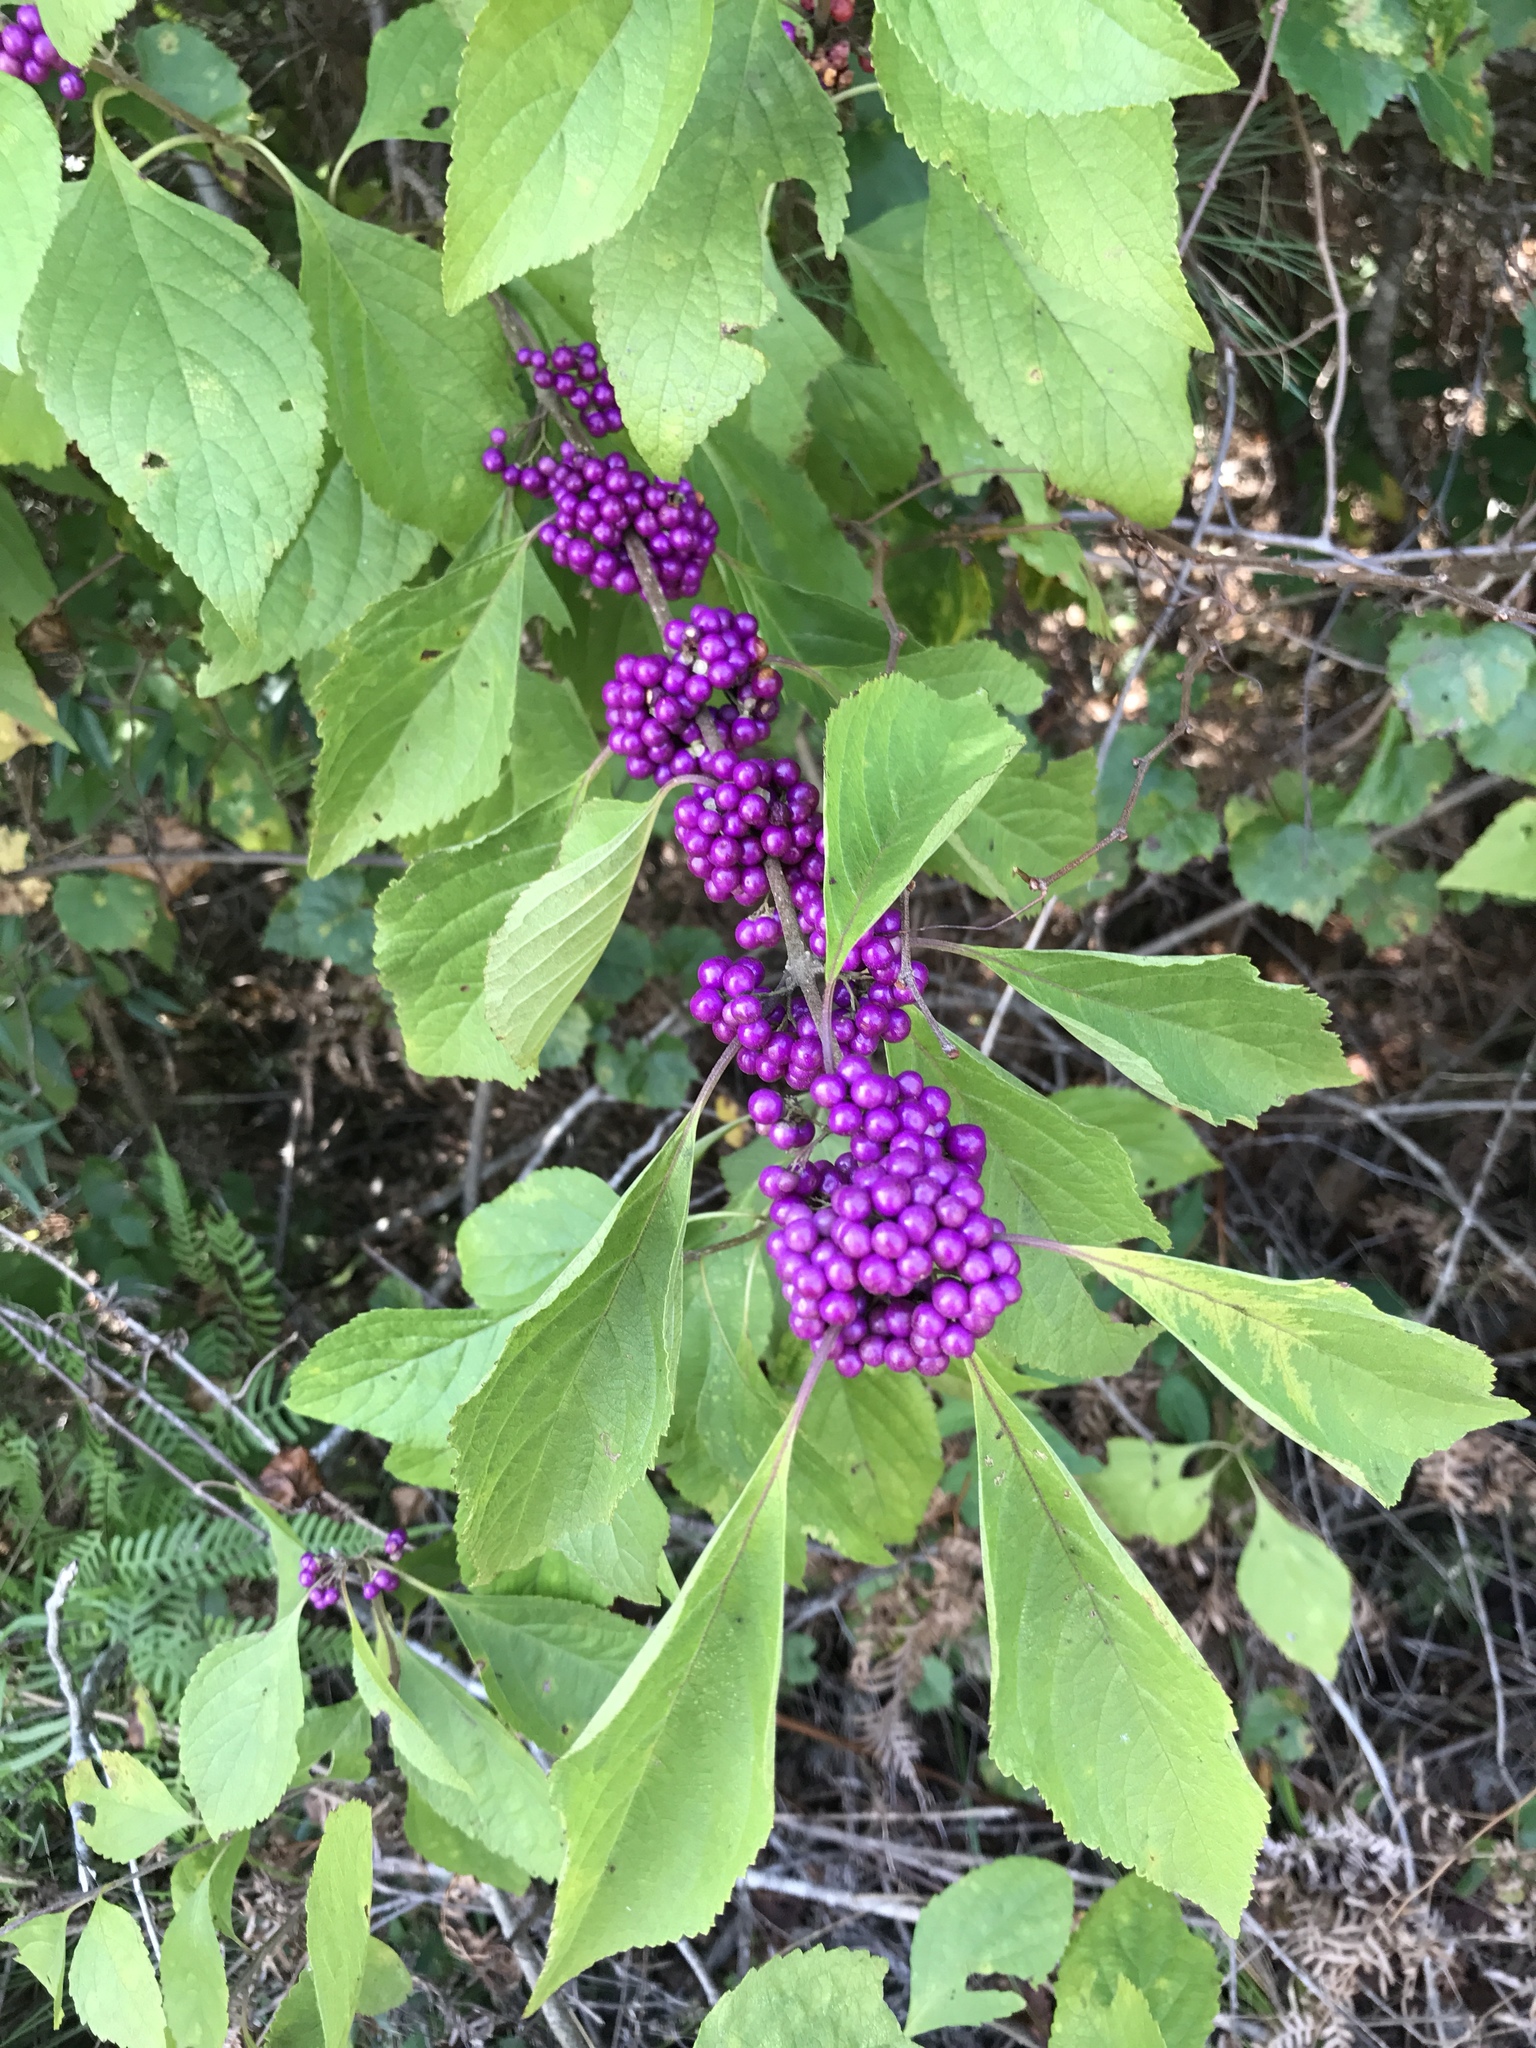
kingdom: Plantae
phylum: Tracheophyta
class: Magnoliopsida
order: Lamiales
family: Lamiaceae
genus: Callicarpa
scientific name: Callicarpa americana
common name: American beautyberry
